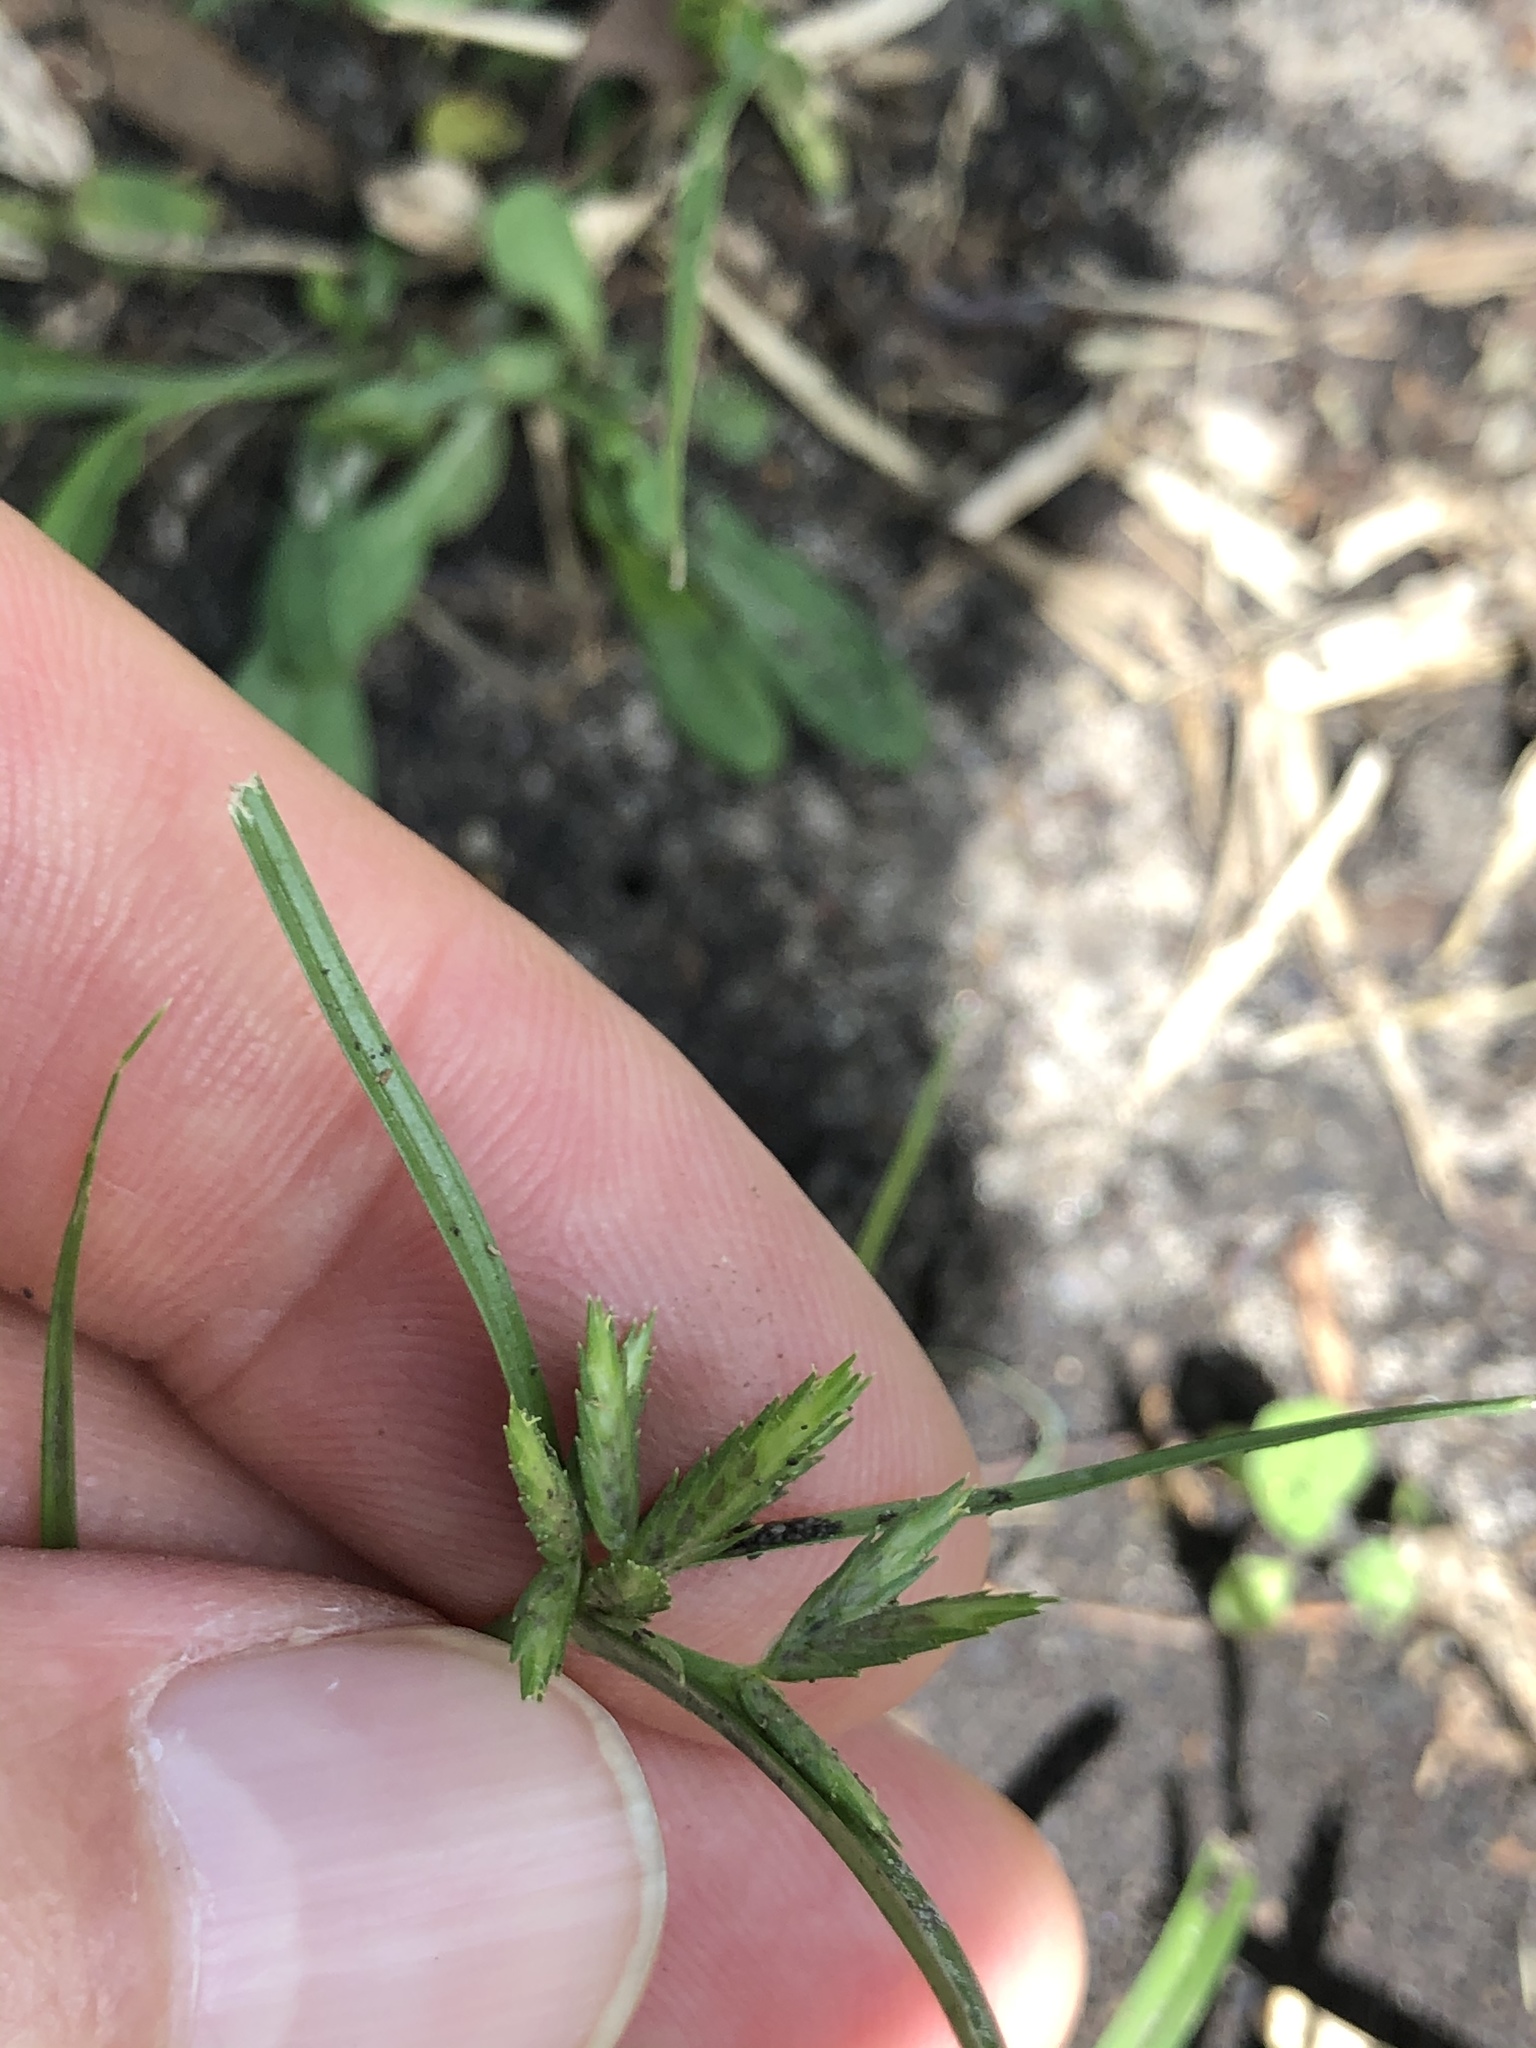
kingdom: Plantae
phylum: Tracheophyta
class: Liliopsida
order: Poales
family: Cyperaceae
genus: Cyperus
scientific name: Cyperus compressus
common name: Poorland flatsedge
